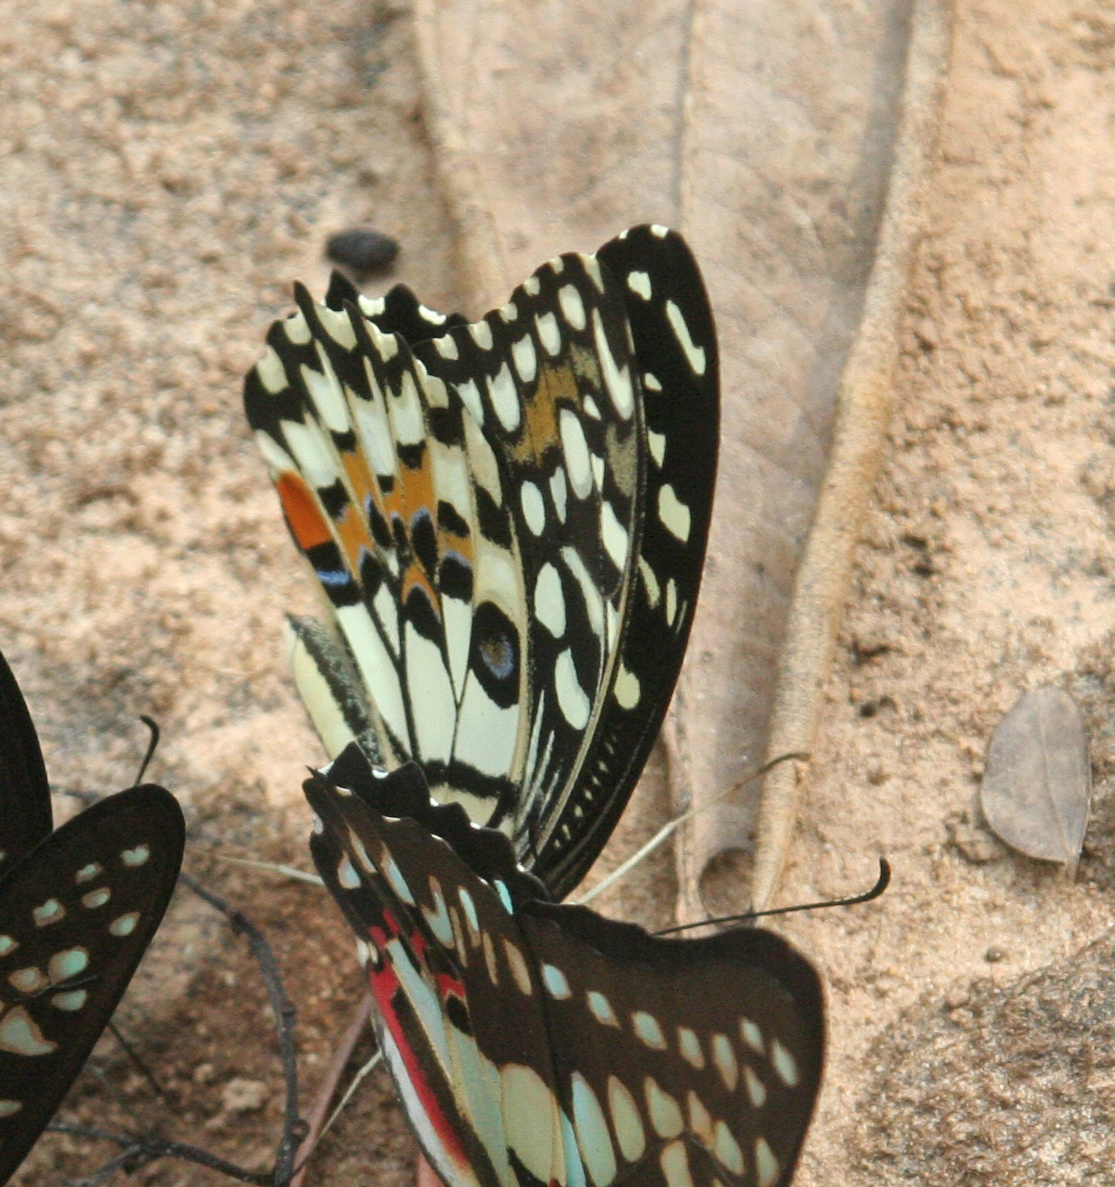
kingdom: Animalia
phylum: Arthropoda
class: Insecta
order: Lepidoptera
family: Papilionidae
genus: Papilio
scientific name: Papilio demoleus
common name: Lime butterfly
